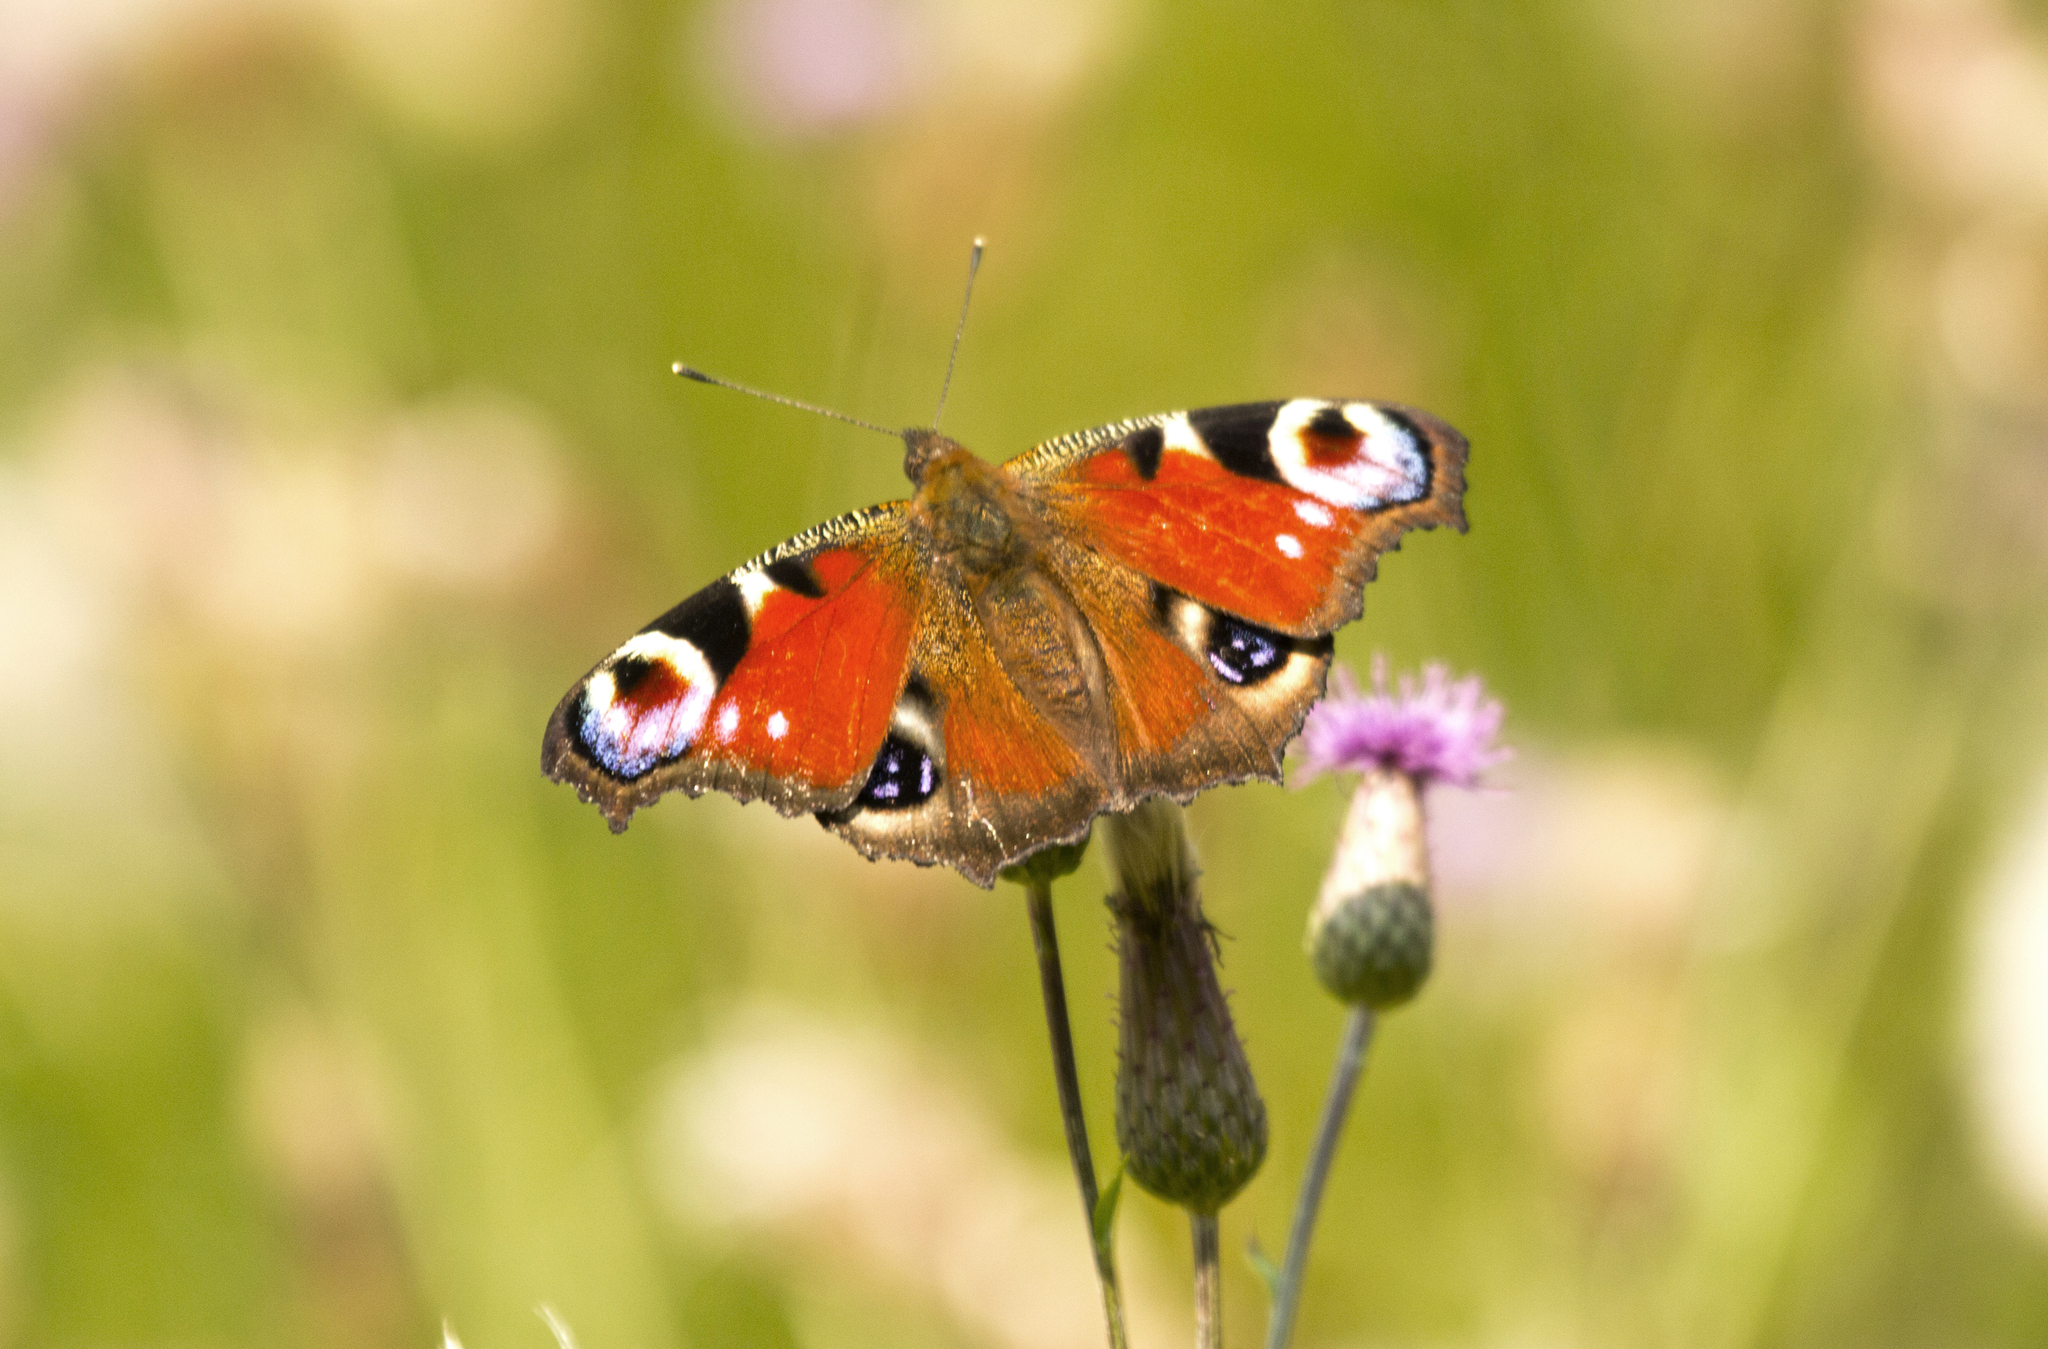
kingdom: Animalia
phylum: Arthropoda
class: Insecta
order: Lepidoptera
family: Nymphalidae
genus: Aglais
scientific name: Aglais io
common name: Peacock
